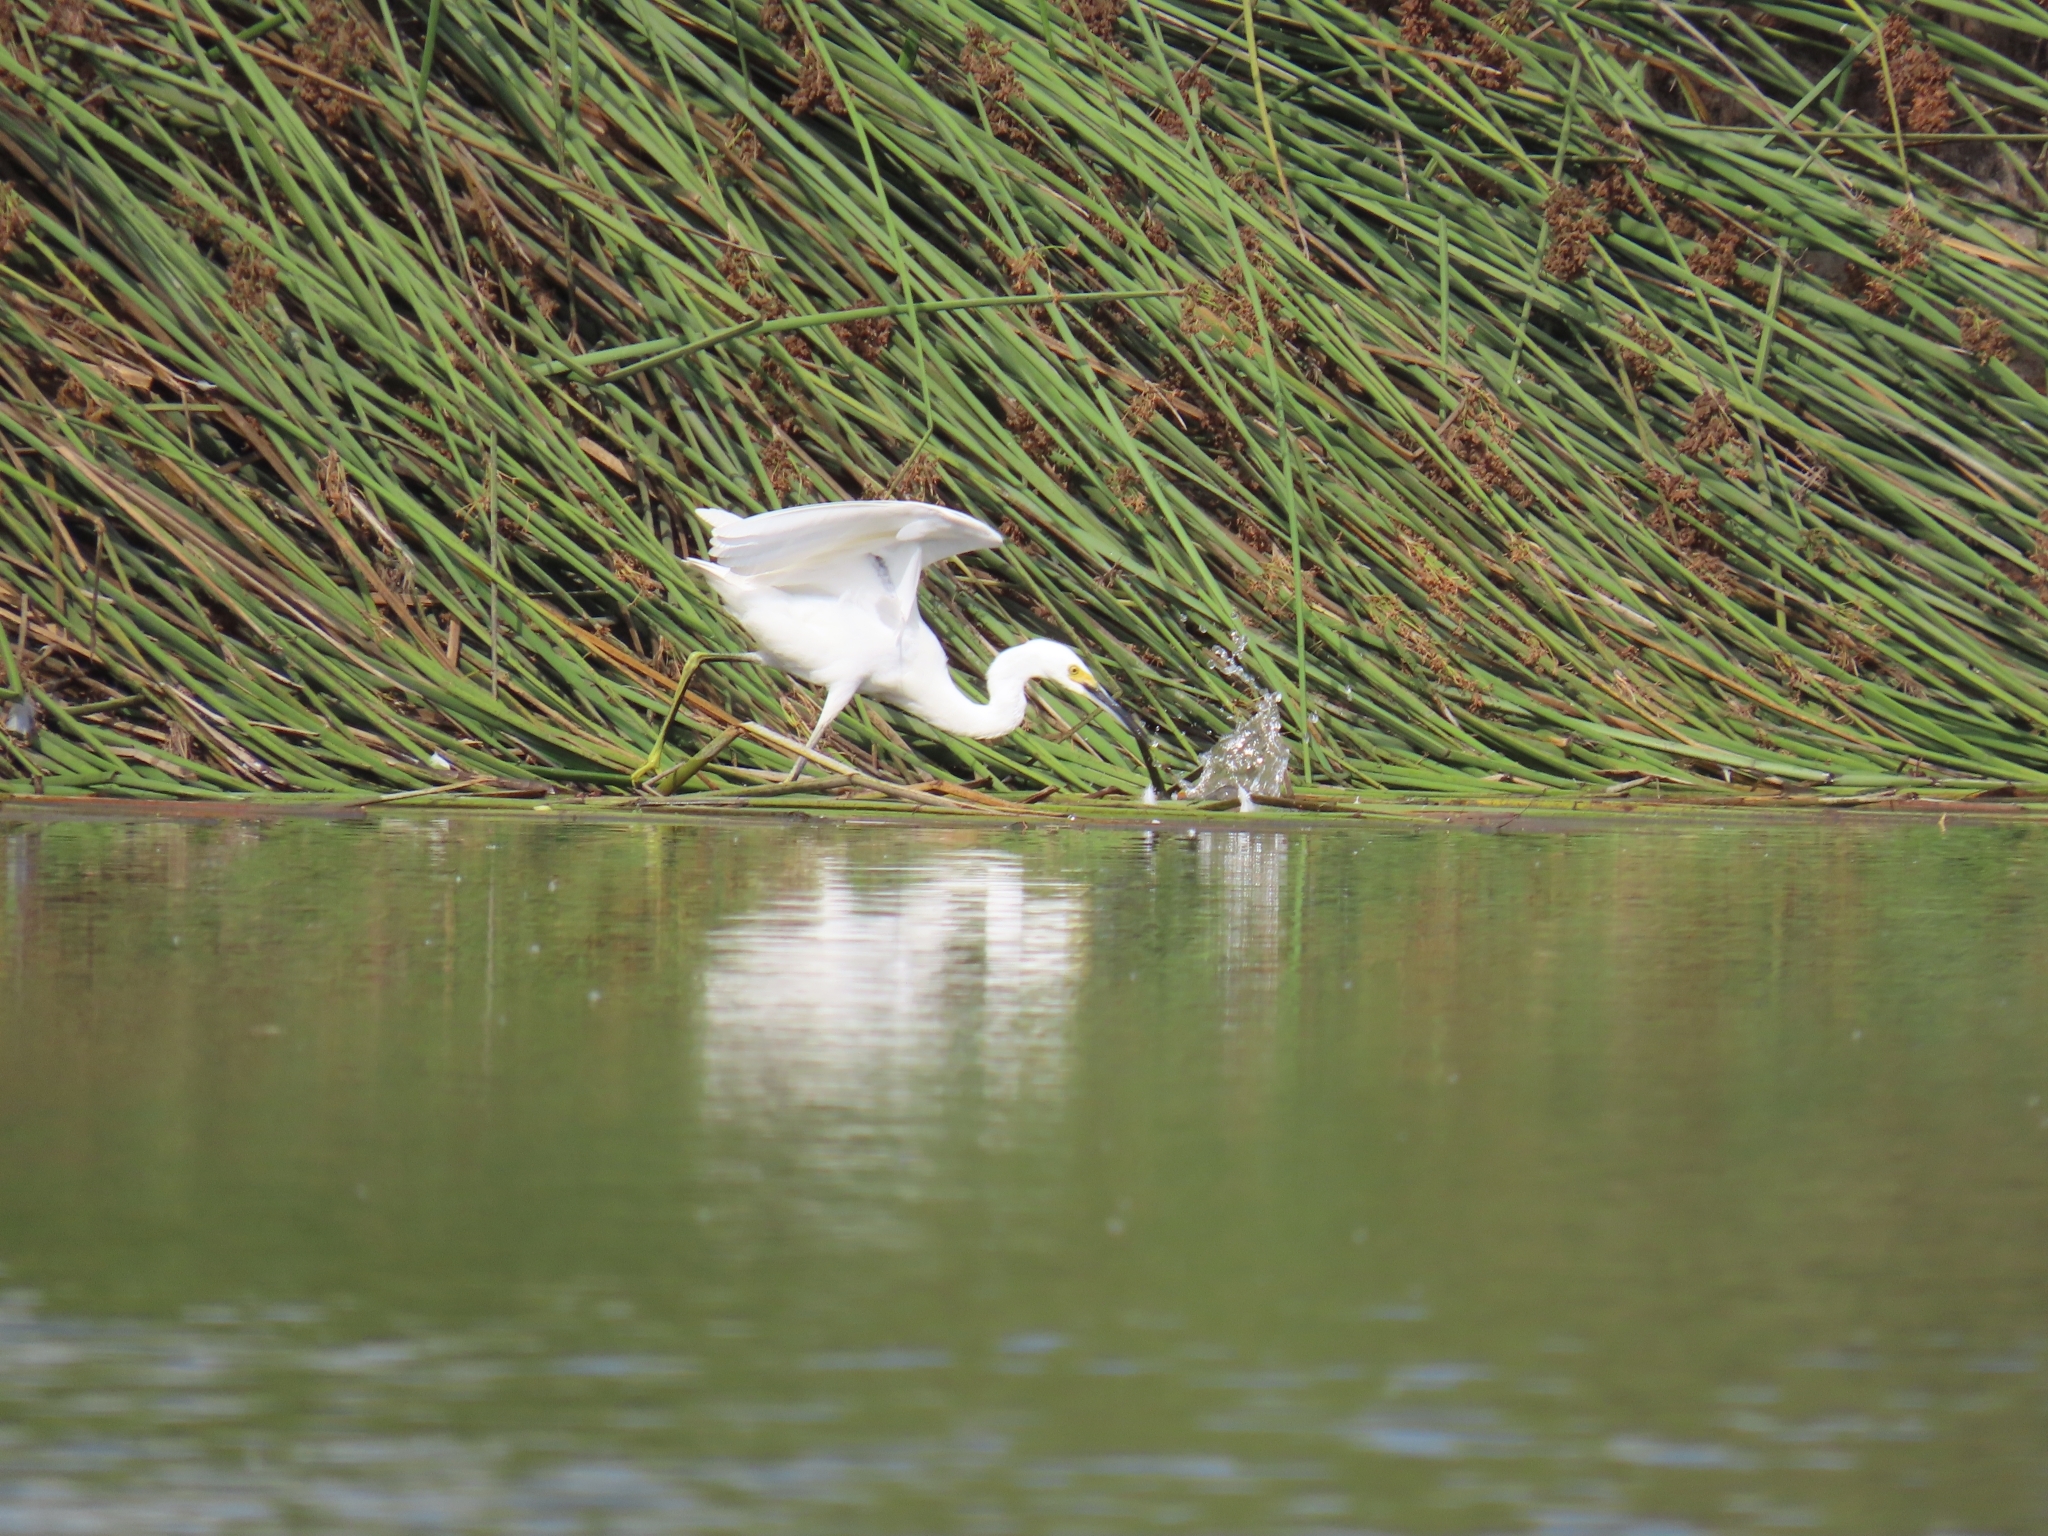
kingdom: Animalia
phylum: Chordata
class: Aves
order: Pelecaniformes
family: Ardeidae
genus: Egretta
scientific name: Egretta thula
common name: Snowy egret
